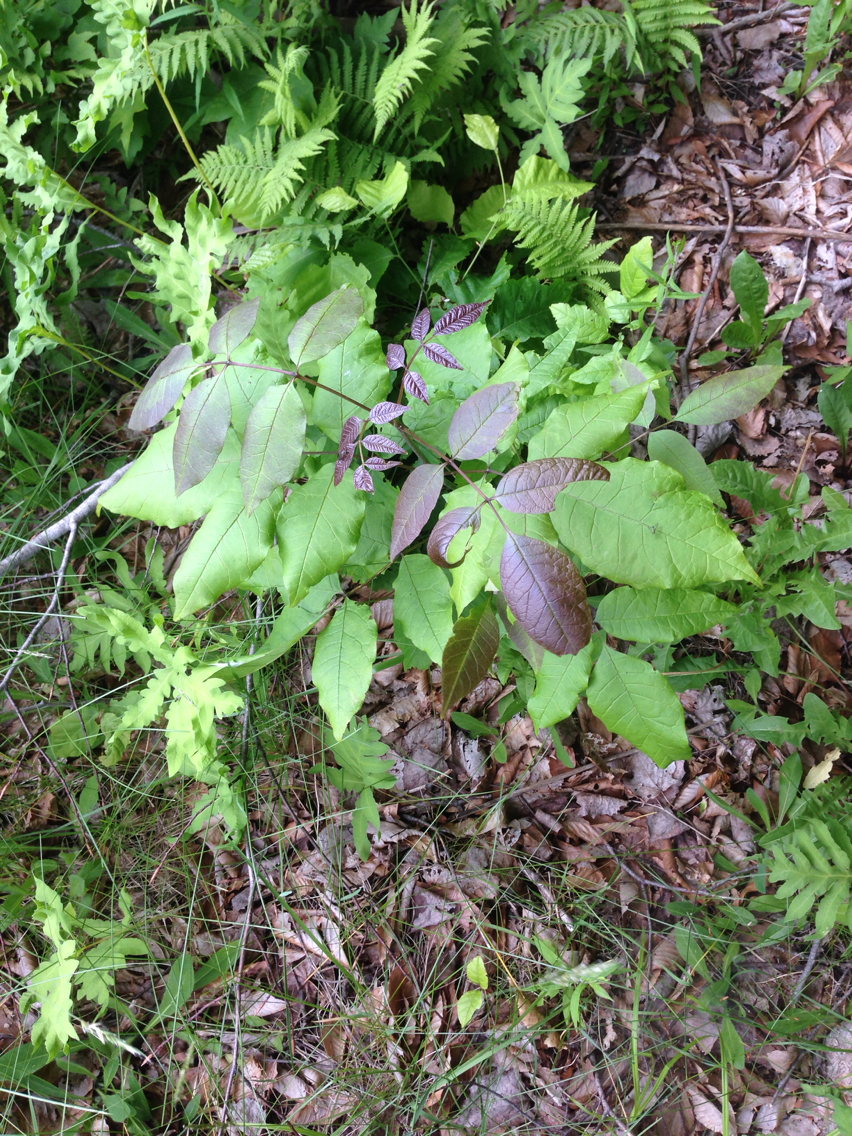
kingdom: Plantae
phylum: Tracheophyta
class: Magnoliopsida
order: Lamiales
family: Oleaceae
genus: Fraxinus
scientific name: Fraxinus americana
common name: White ash
